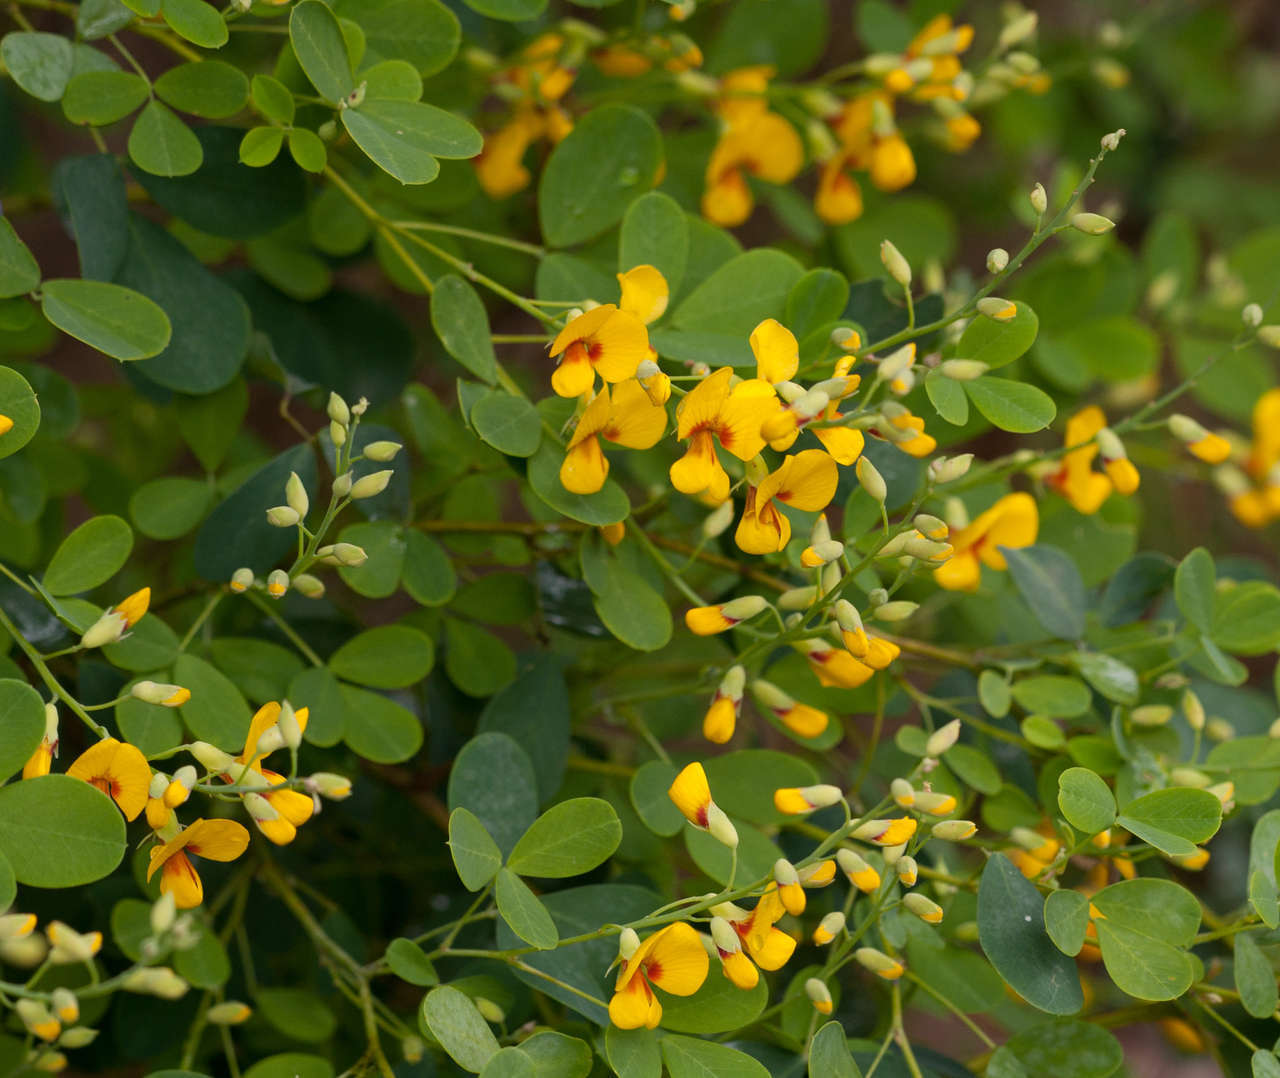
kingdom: Plantae
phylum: Tracheophyta
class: Magnoliopsida
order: Fabales
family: Fabaceae
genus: Goodia
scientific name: Goodia lotifolia
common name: Cloverleaf-poison
